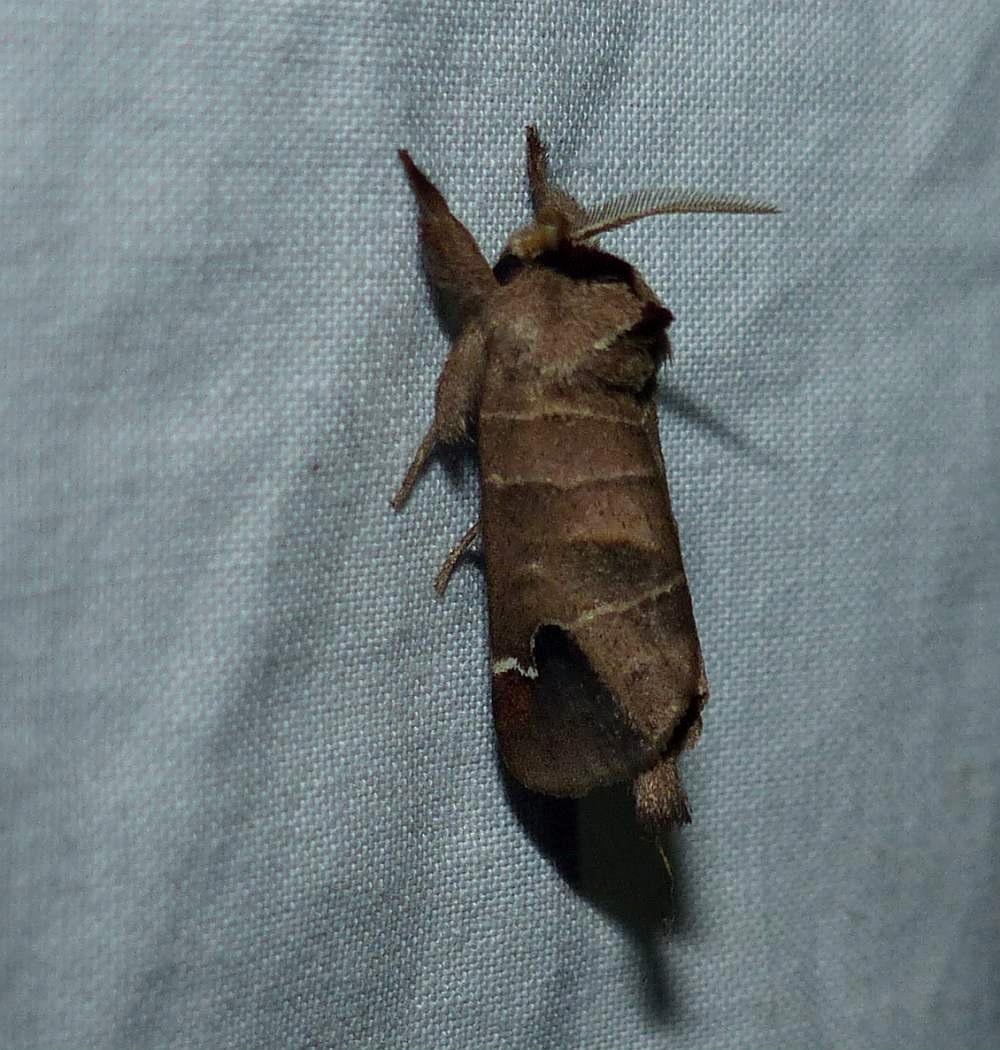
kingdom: Animalia
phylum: Arthropoda
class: Insecta
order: Lepidoptera
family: Notodontidae
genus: Clostera
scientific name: Clostera albosigma
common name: Sigmoid prominent
